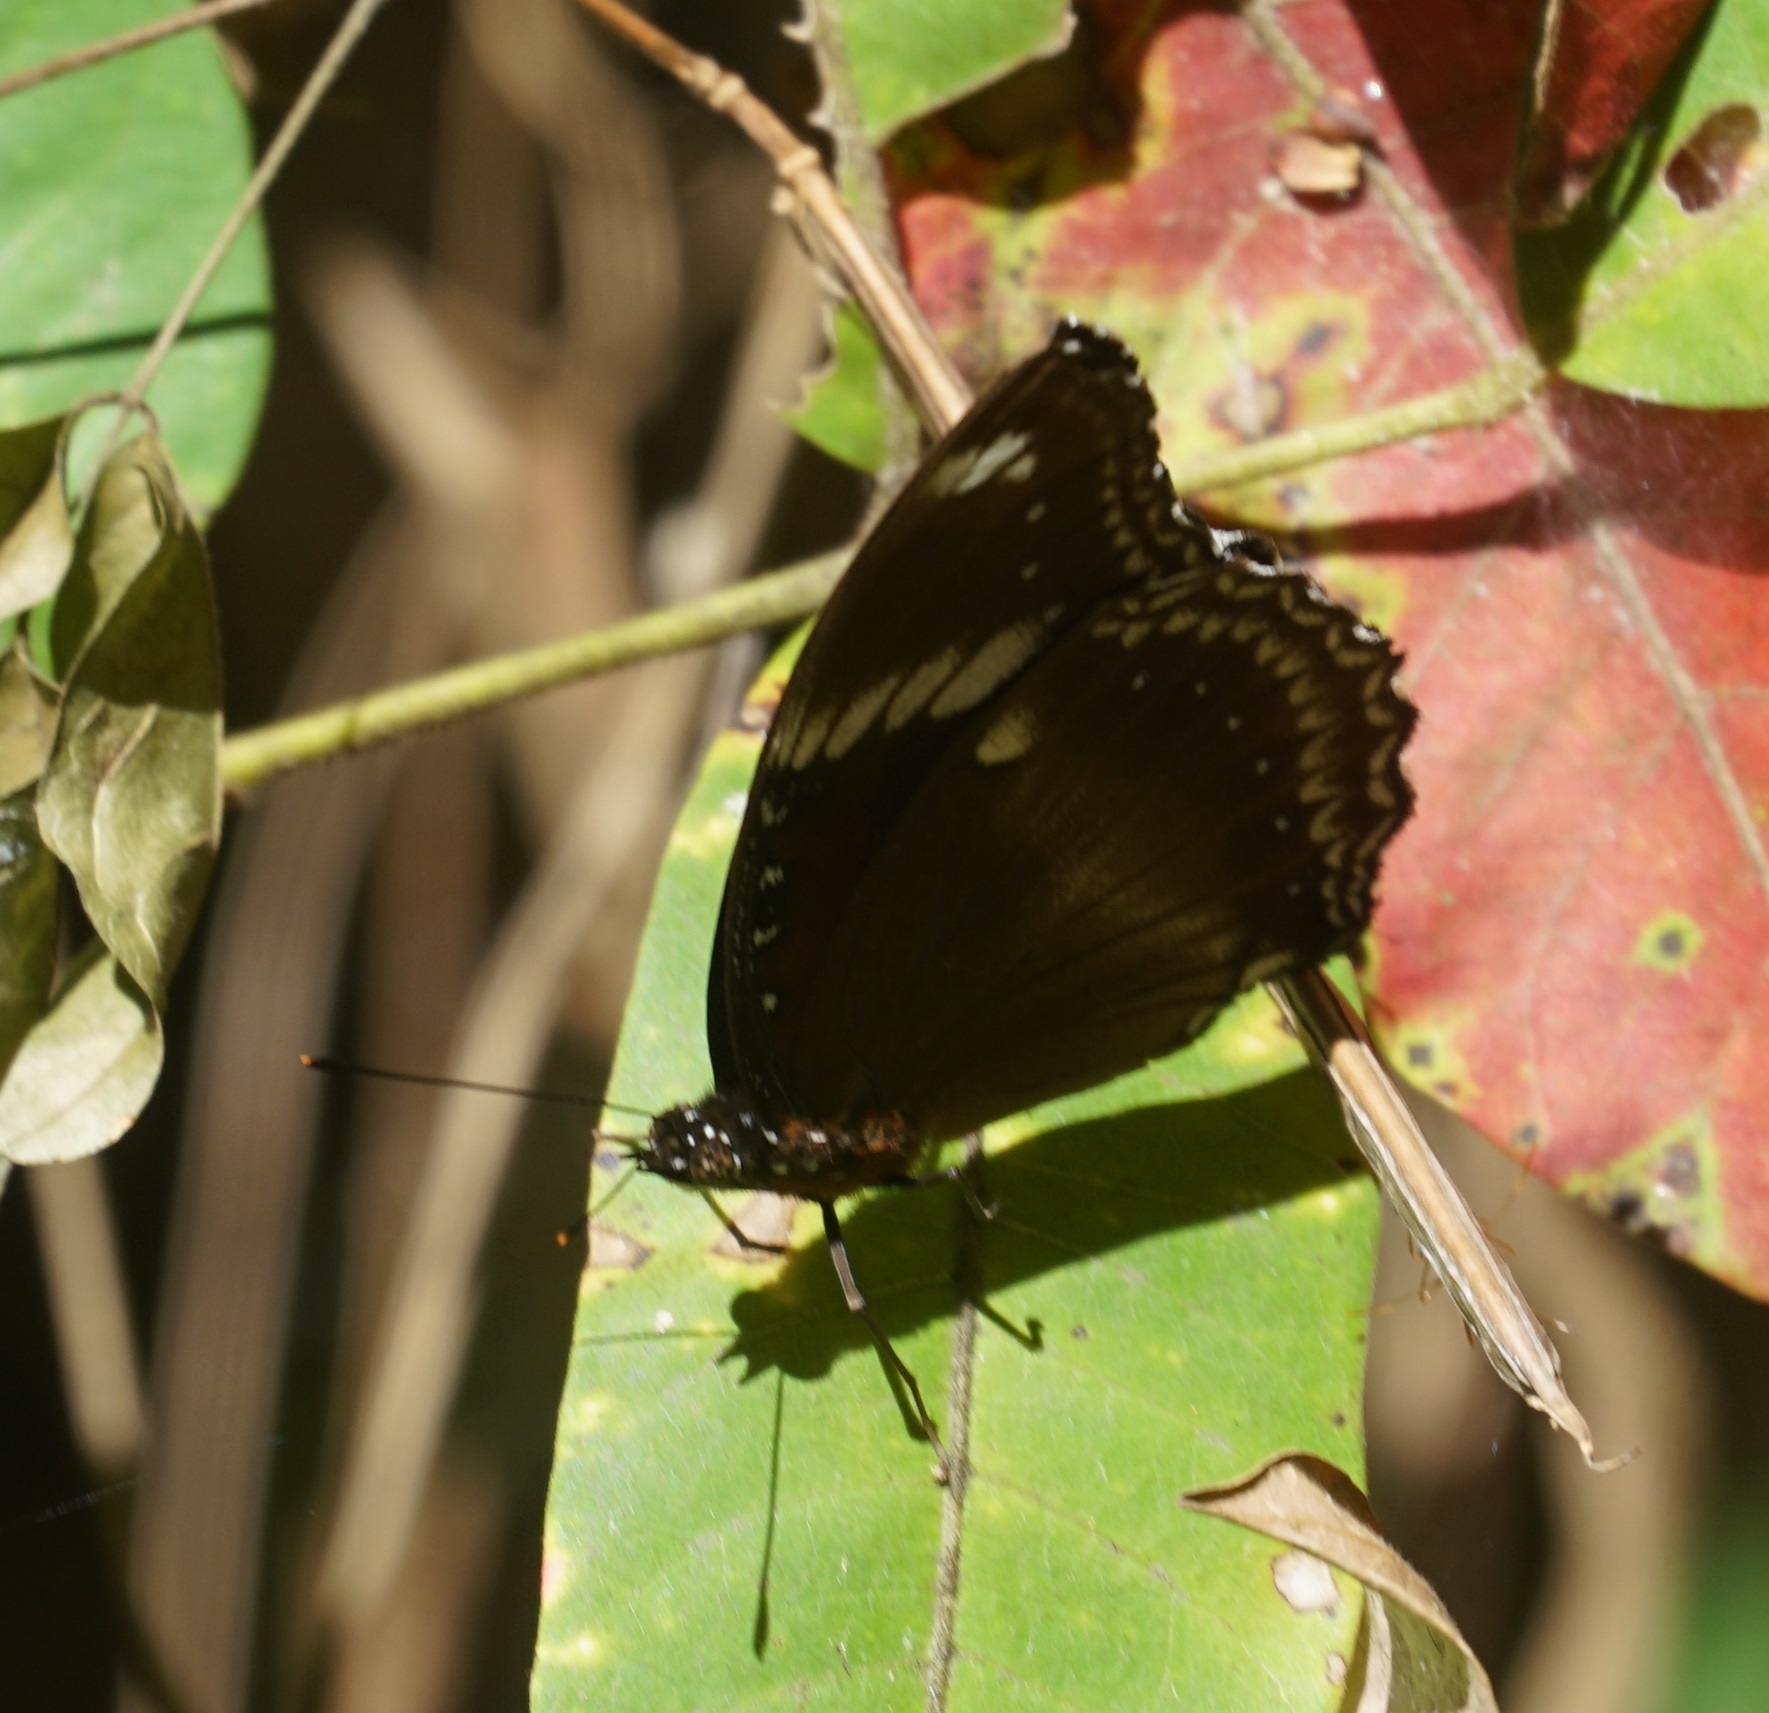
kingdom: Animalia
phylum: Arthropoda
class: Insecta
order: Lepidoptera
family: Nymphalidae
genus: Hypolimnas
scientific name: Hypolimnas bolina
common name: Great eggfly
